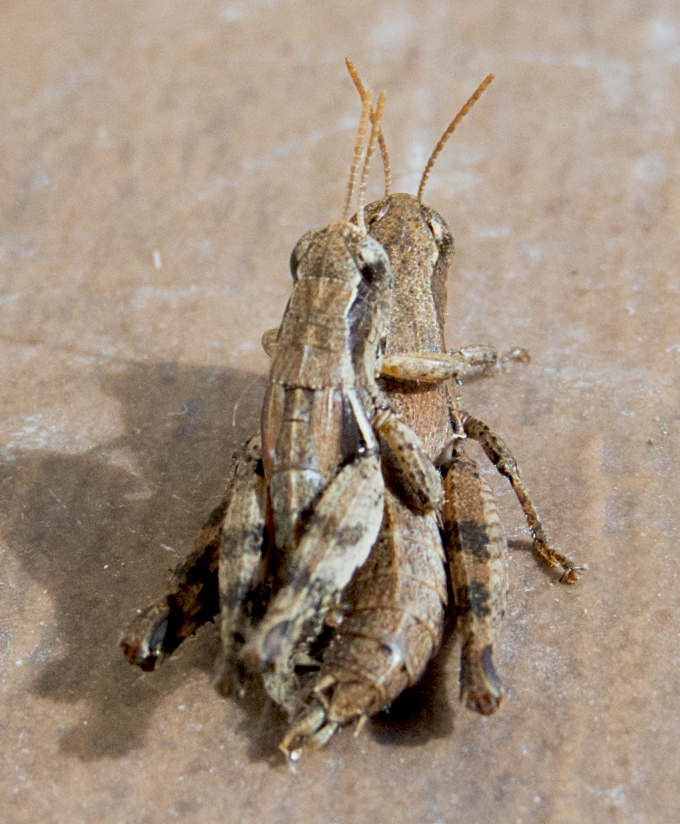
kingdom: Animalia
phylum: Arthropoda
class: Insecta
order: Orthoptera
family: Acrididae
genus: Pezotettix
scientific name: Pezotettix giornae
